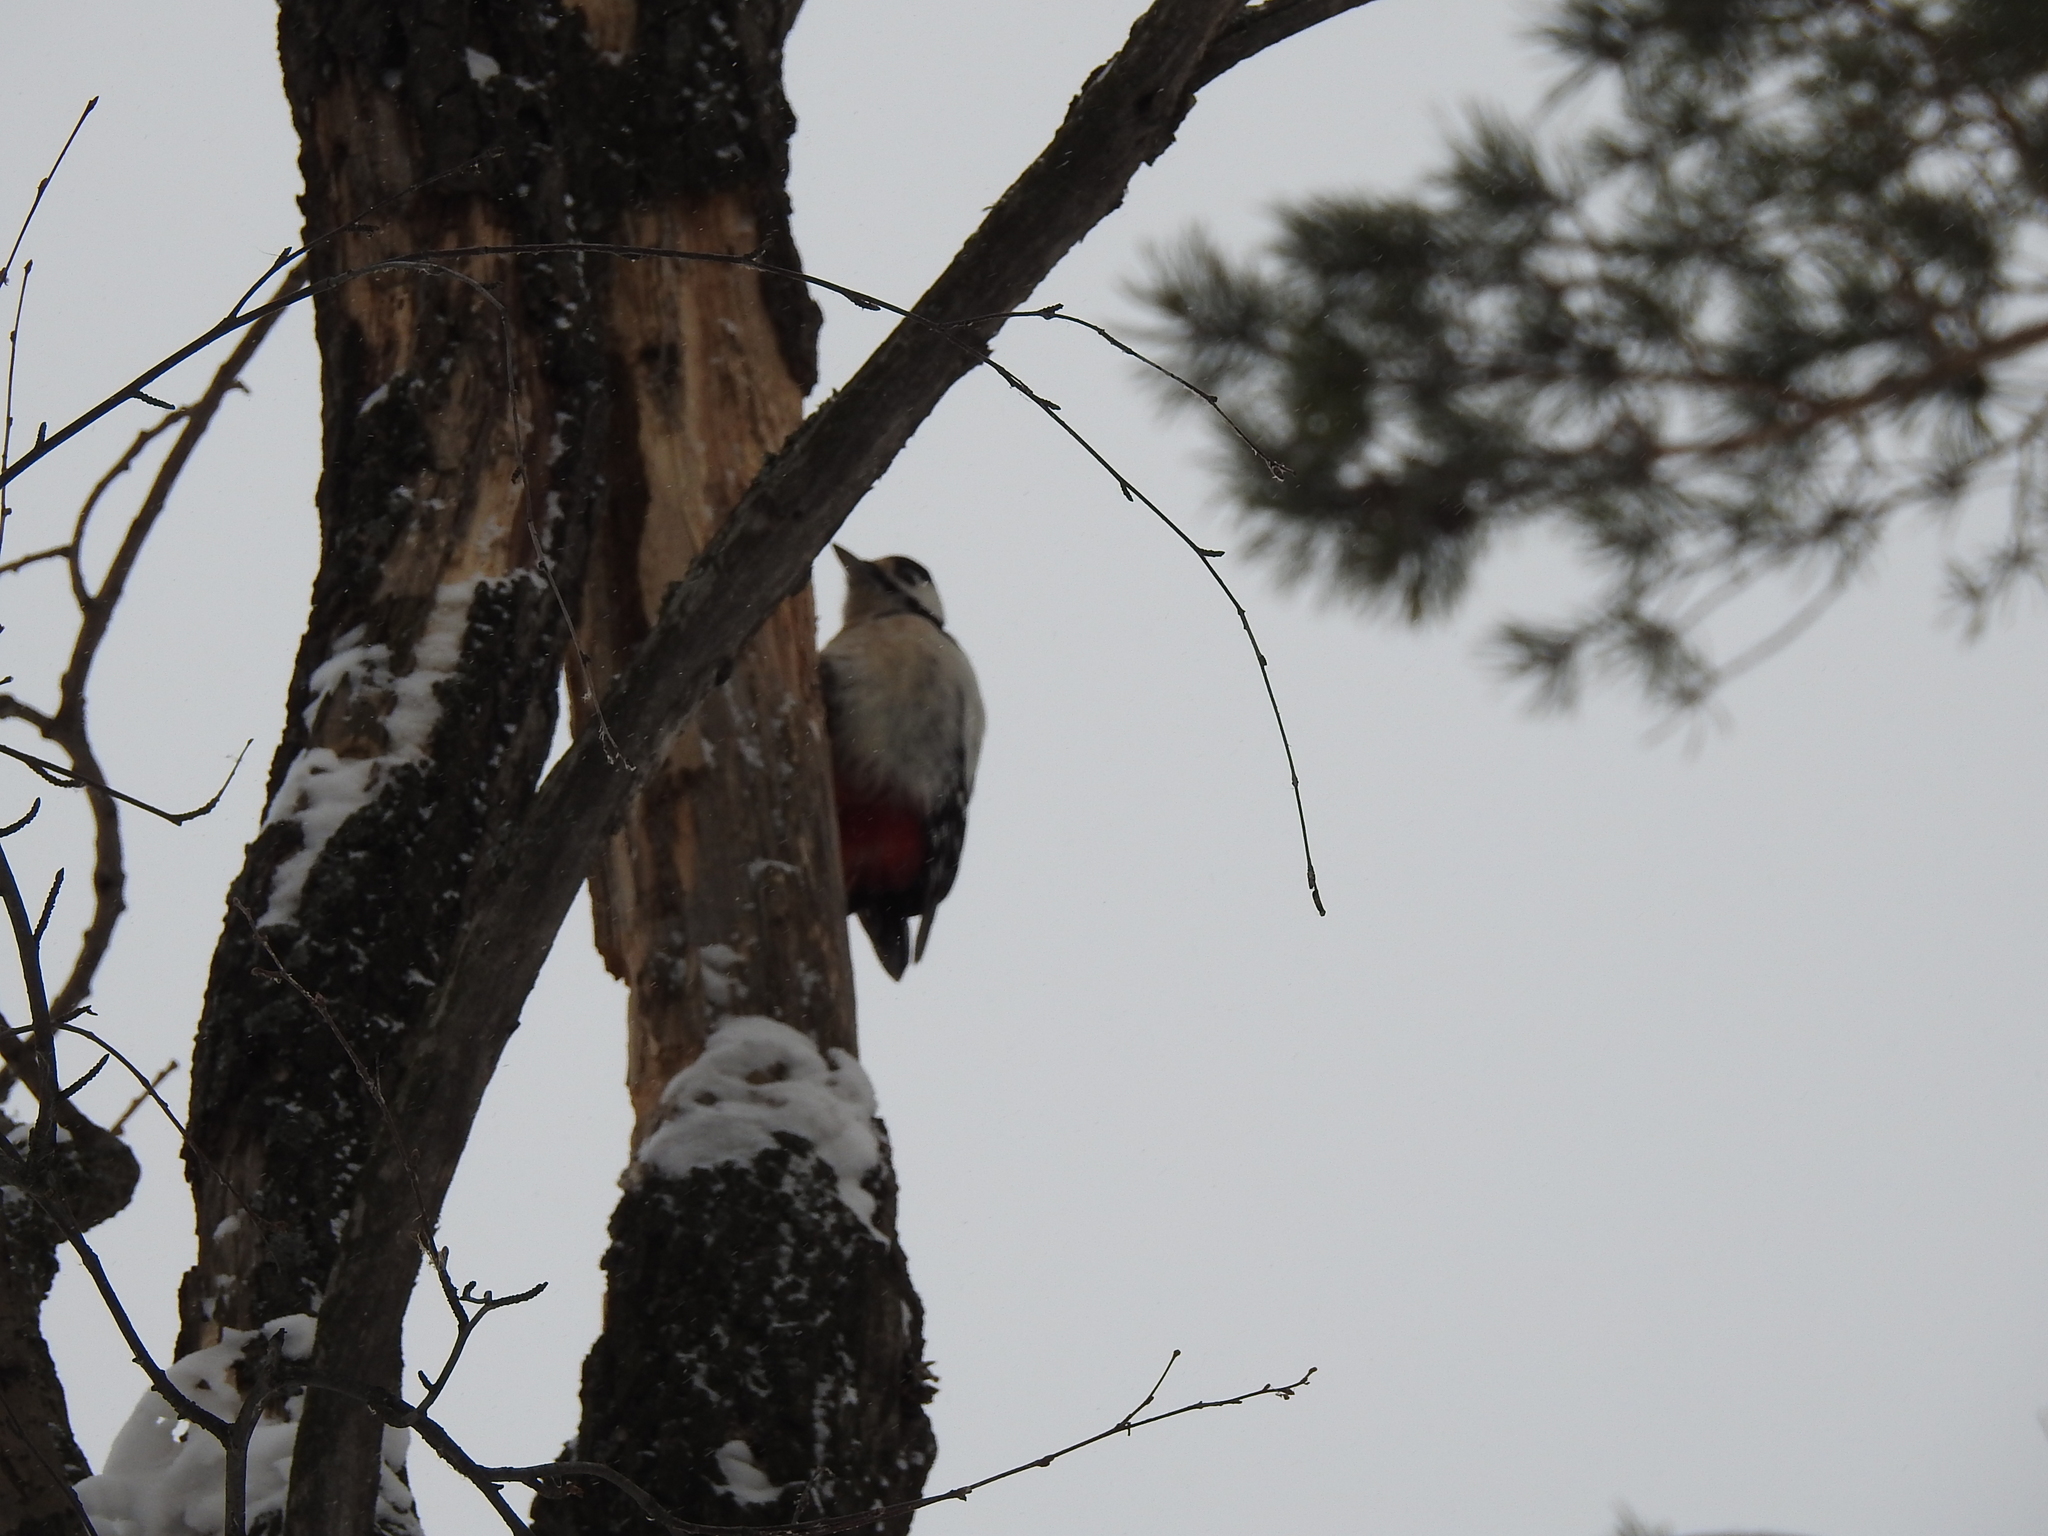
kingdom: Animalia
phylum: Chordata
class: Aves
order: Piciformes
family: Picidae
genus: Dendrocopos
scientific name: Dendrocopos major
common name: Great spotted woodpecker
